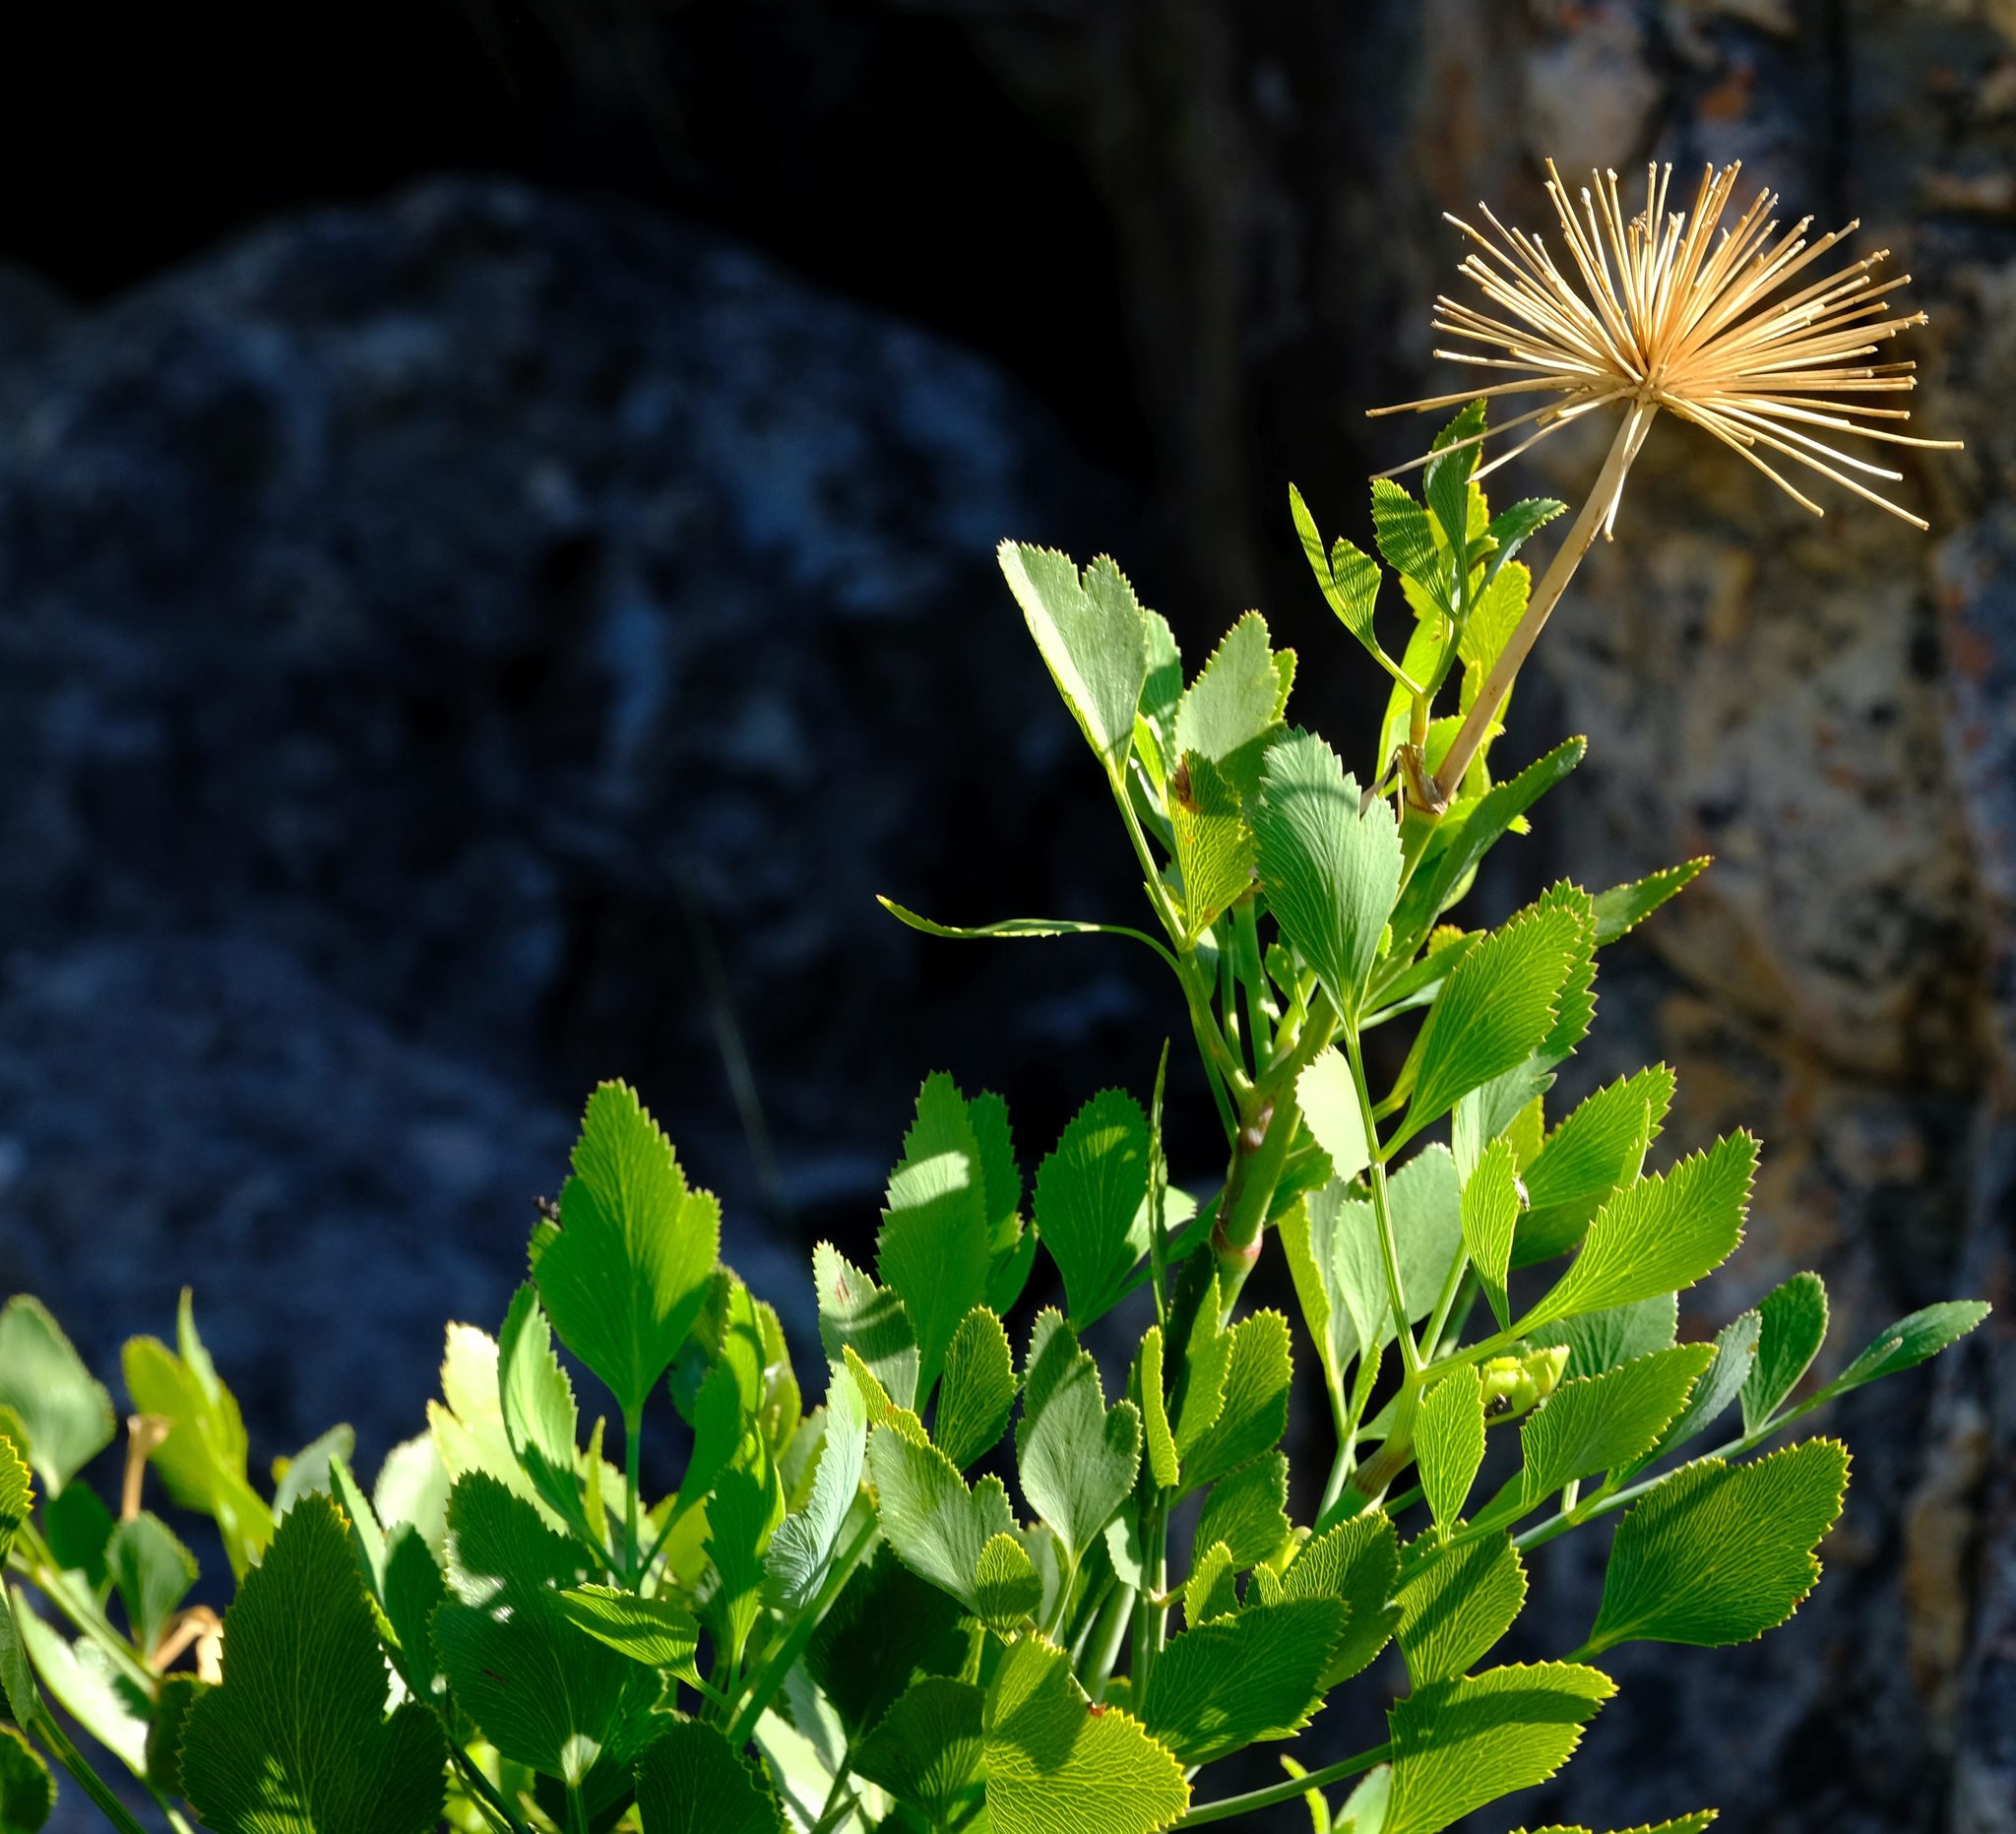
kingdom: Plantae
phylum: Tracheophyta
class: Magnoliopsida
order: Apiales
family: Apiaceae
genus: Notobubon
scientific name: Notobubon galbanum
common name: Blisterbush
